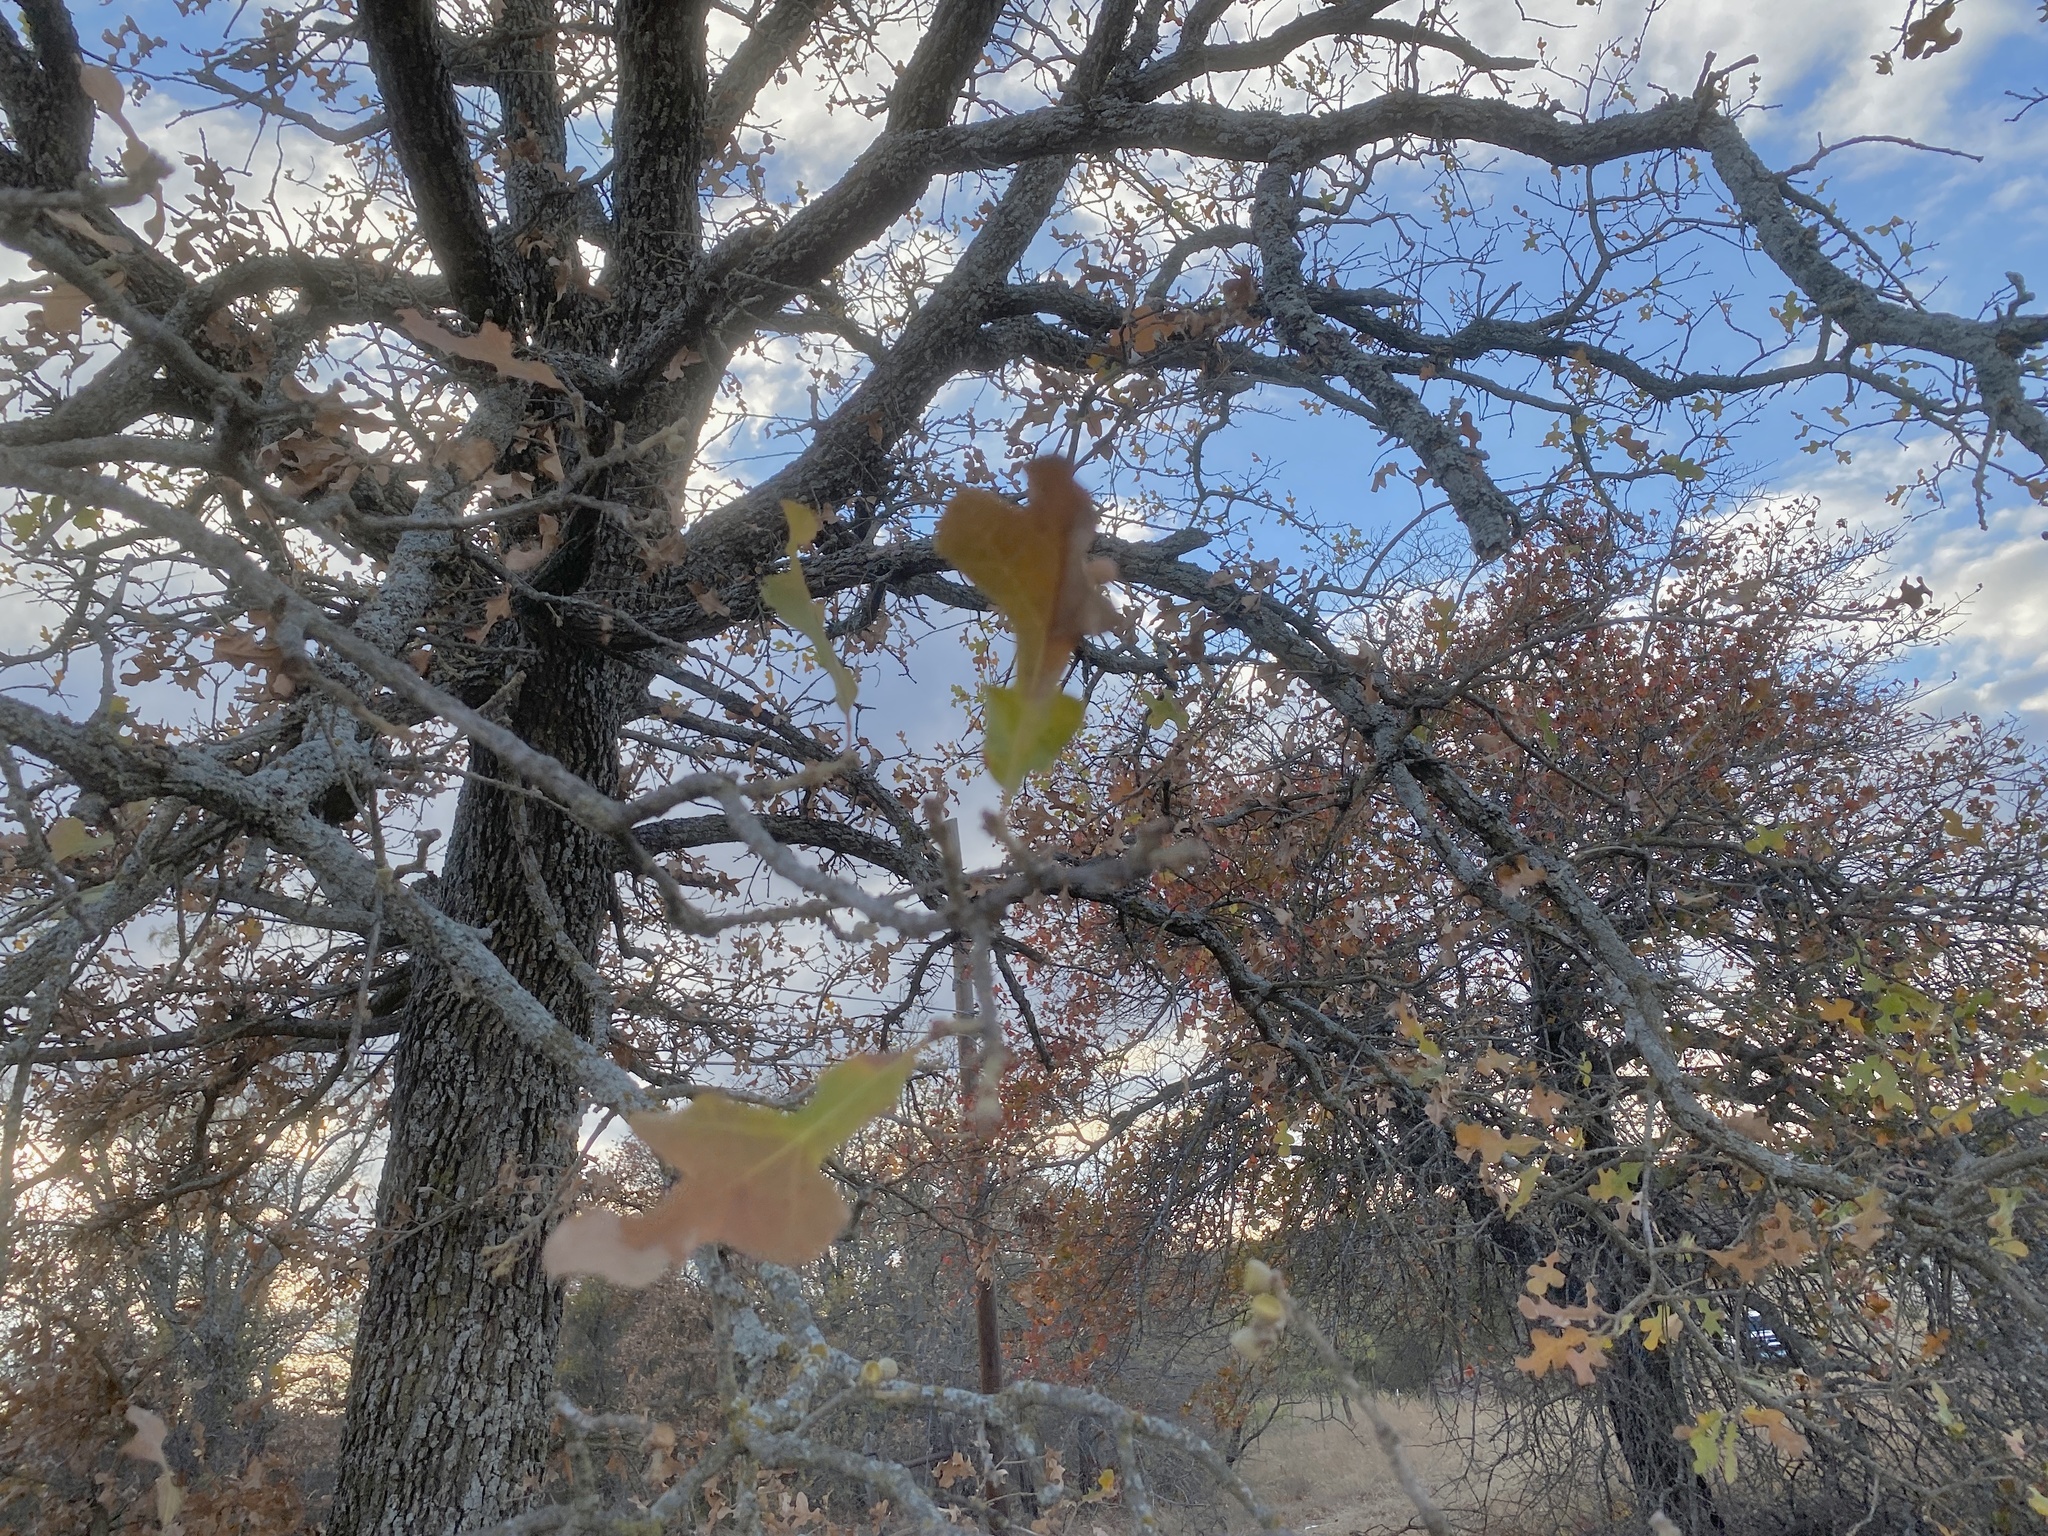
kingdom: Plantae
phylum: Tracheophyta
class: Magnoliopsida
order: Fagales
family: Fagaceae
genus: Quercus
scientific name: Quercus stellata
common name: Post oak
